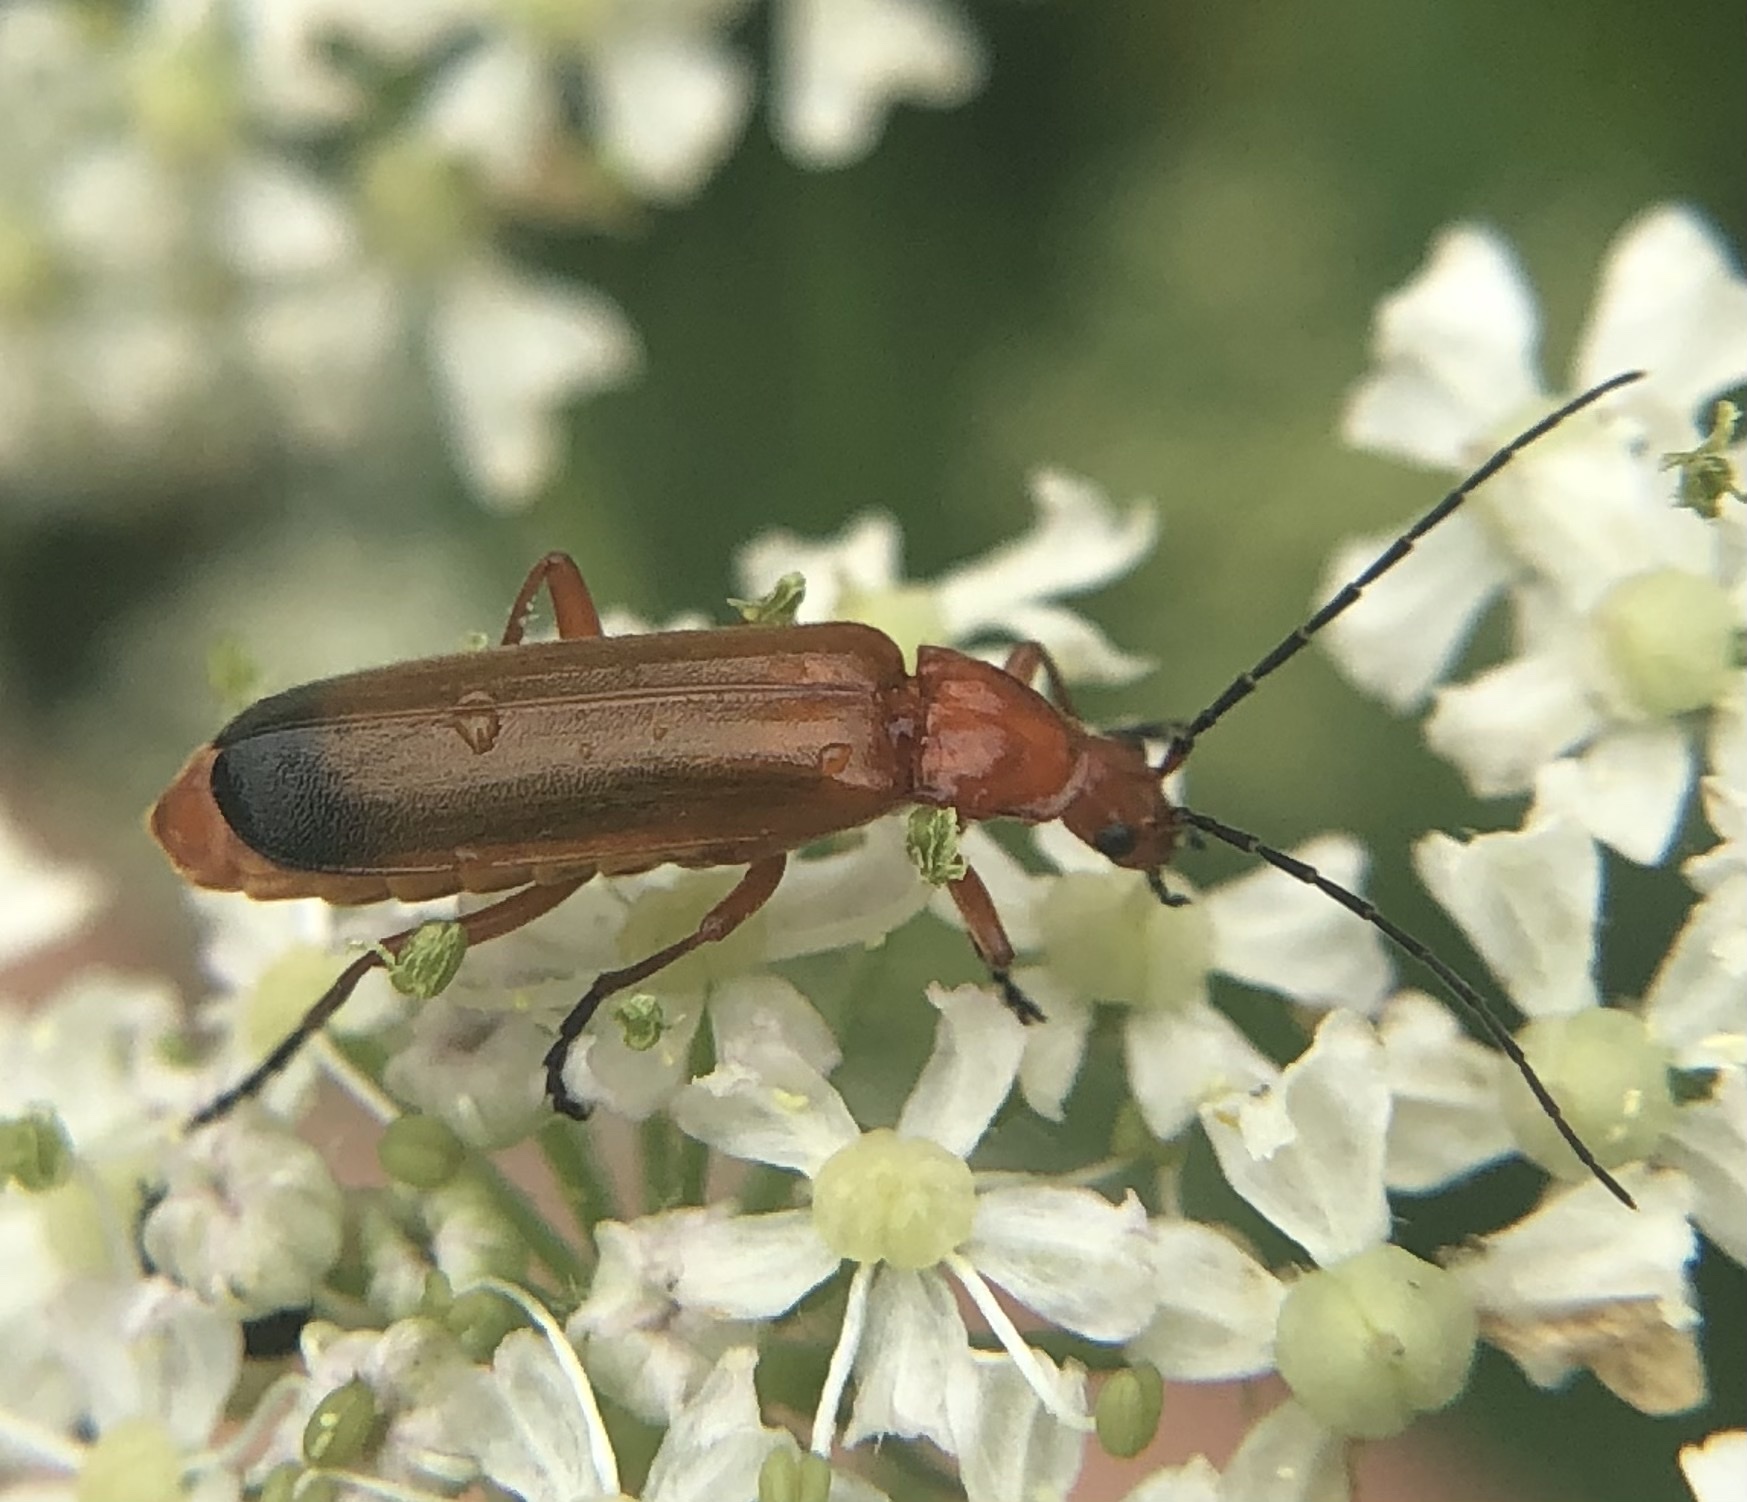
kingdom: Animalia
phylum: Arthropoda
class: Insecta
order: Coleoptera
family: Cantharidae
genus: Rhagonycha
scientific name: Rhagonycha fulva
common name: Common red soldier beetle
